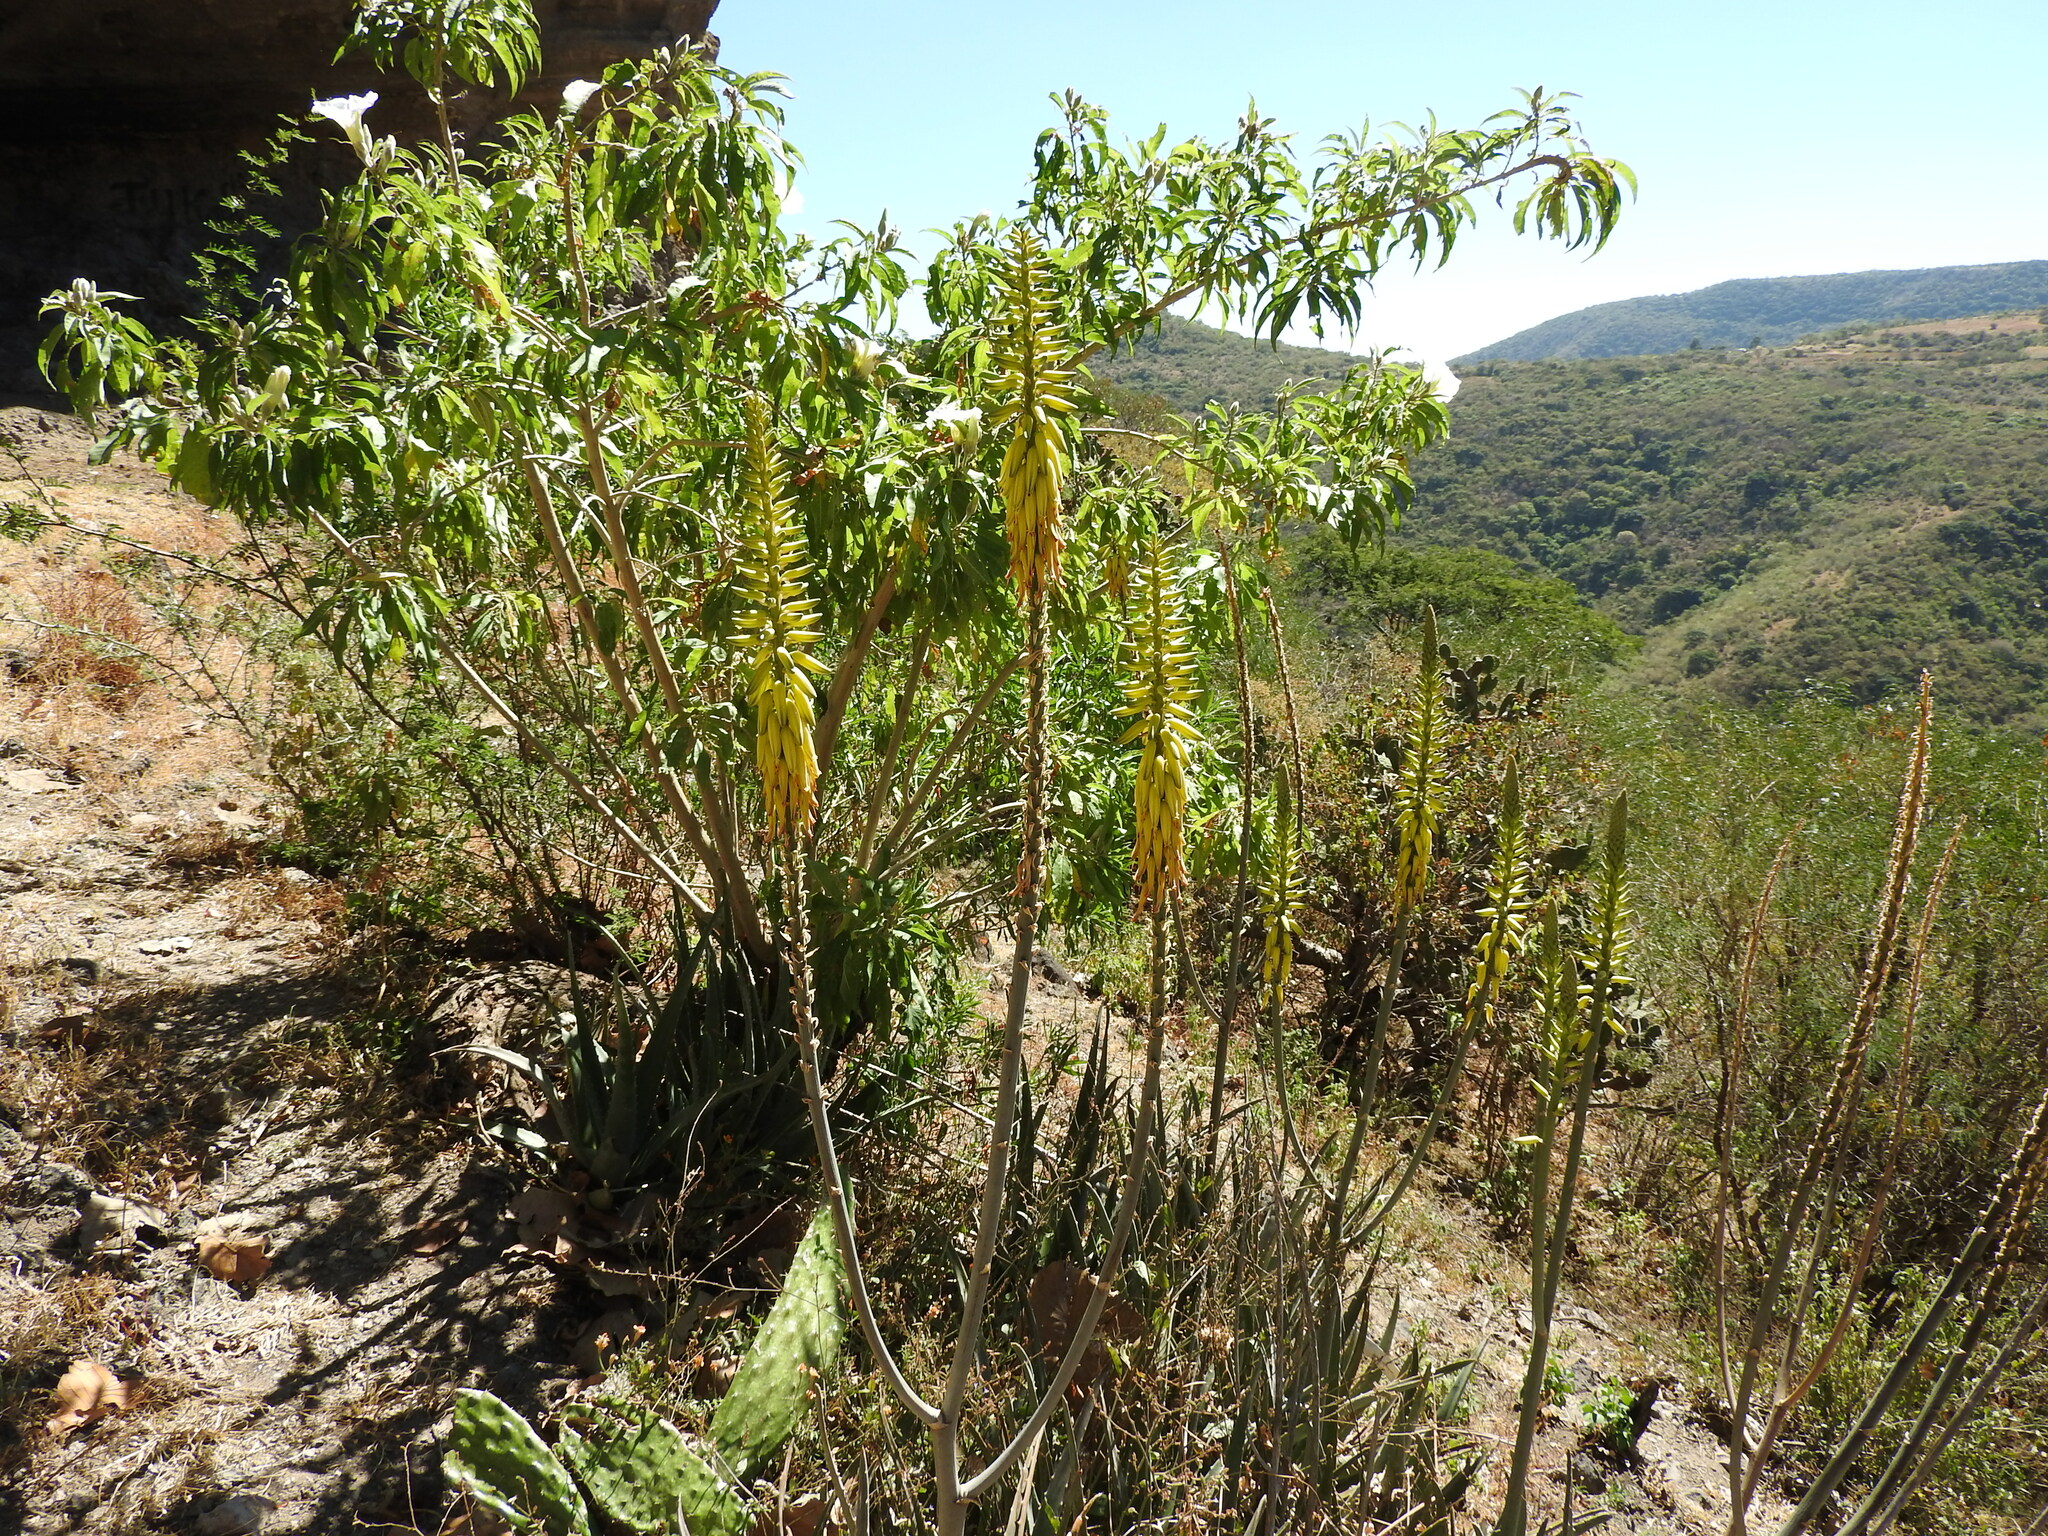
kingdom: Plantae
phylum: Tracheophyta
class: Liliopsida
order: Asparagales
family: Asphodelaceae
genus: Aloe
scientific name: Aloe vera
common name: Barbados aloe
